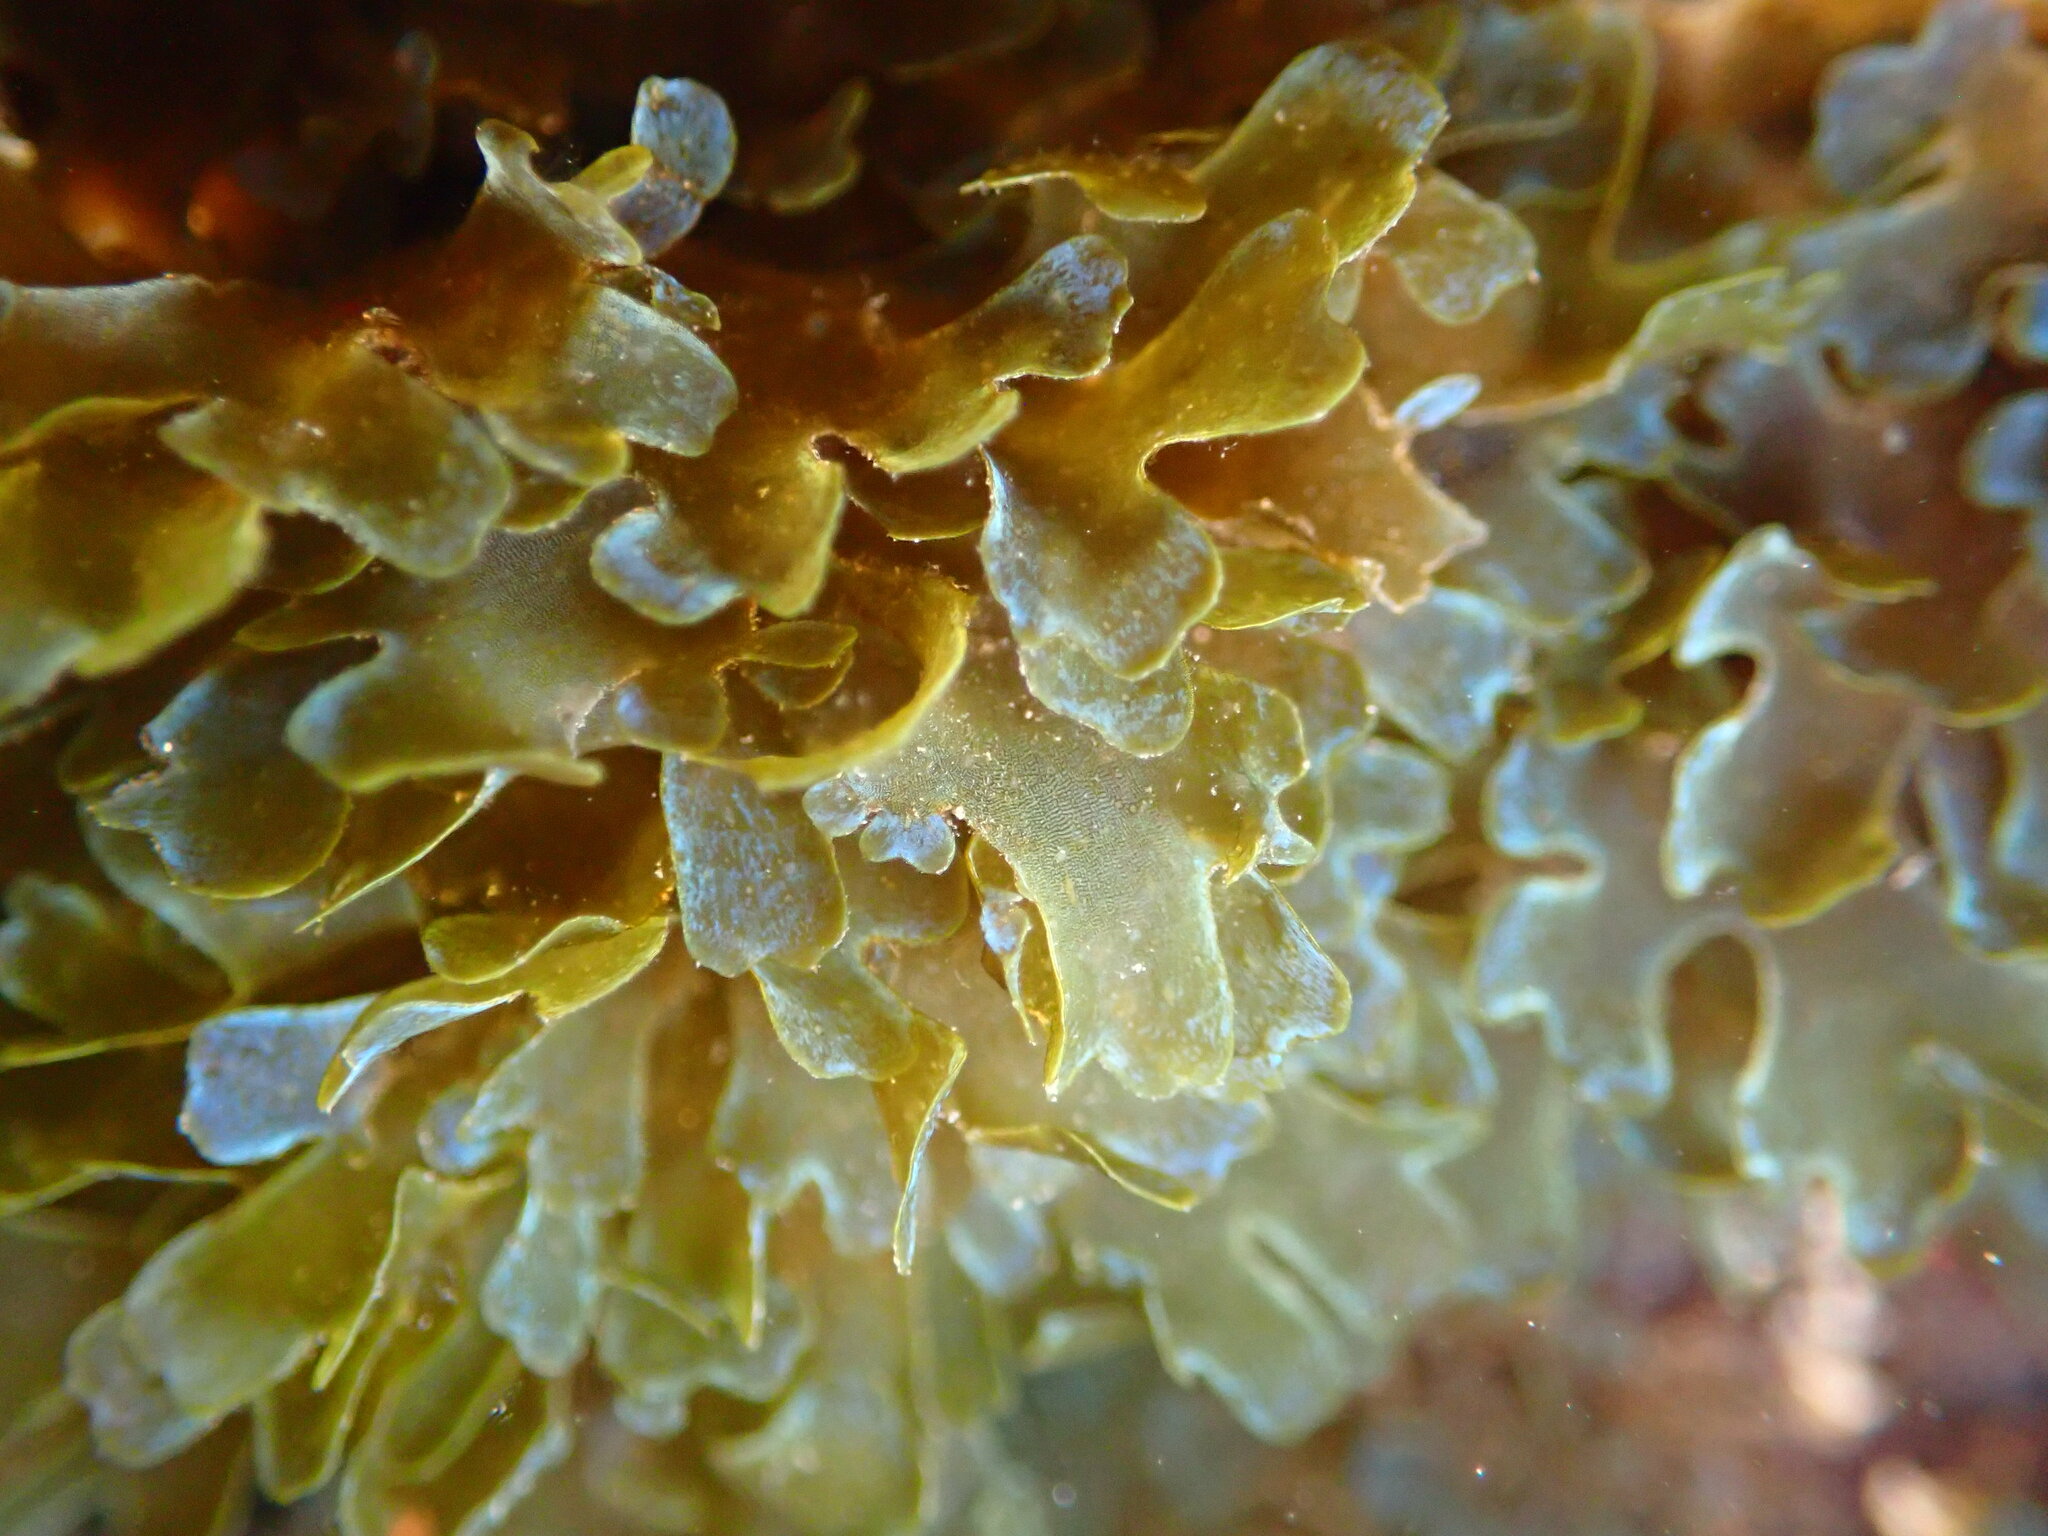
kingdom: Chromista
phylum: Ochrophyta
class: Phaeophyceae
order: Dictyotales
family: Dictyotaceae
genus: Dictyota
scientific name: Dictyota cyanoloma
